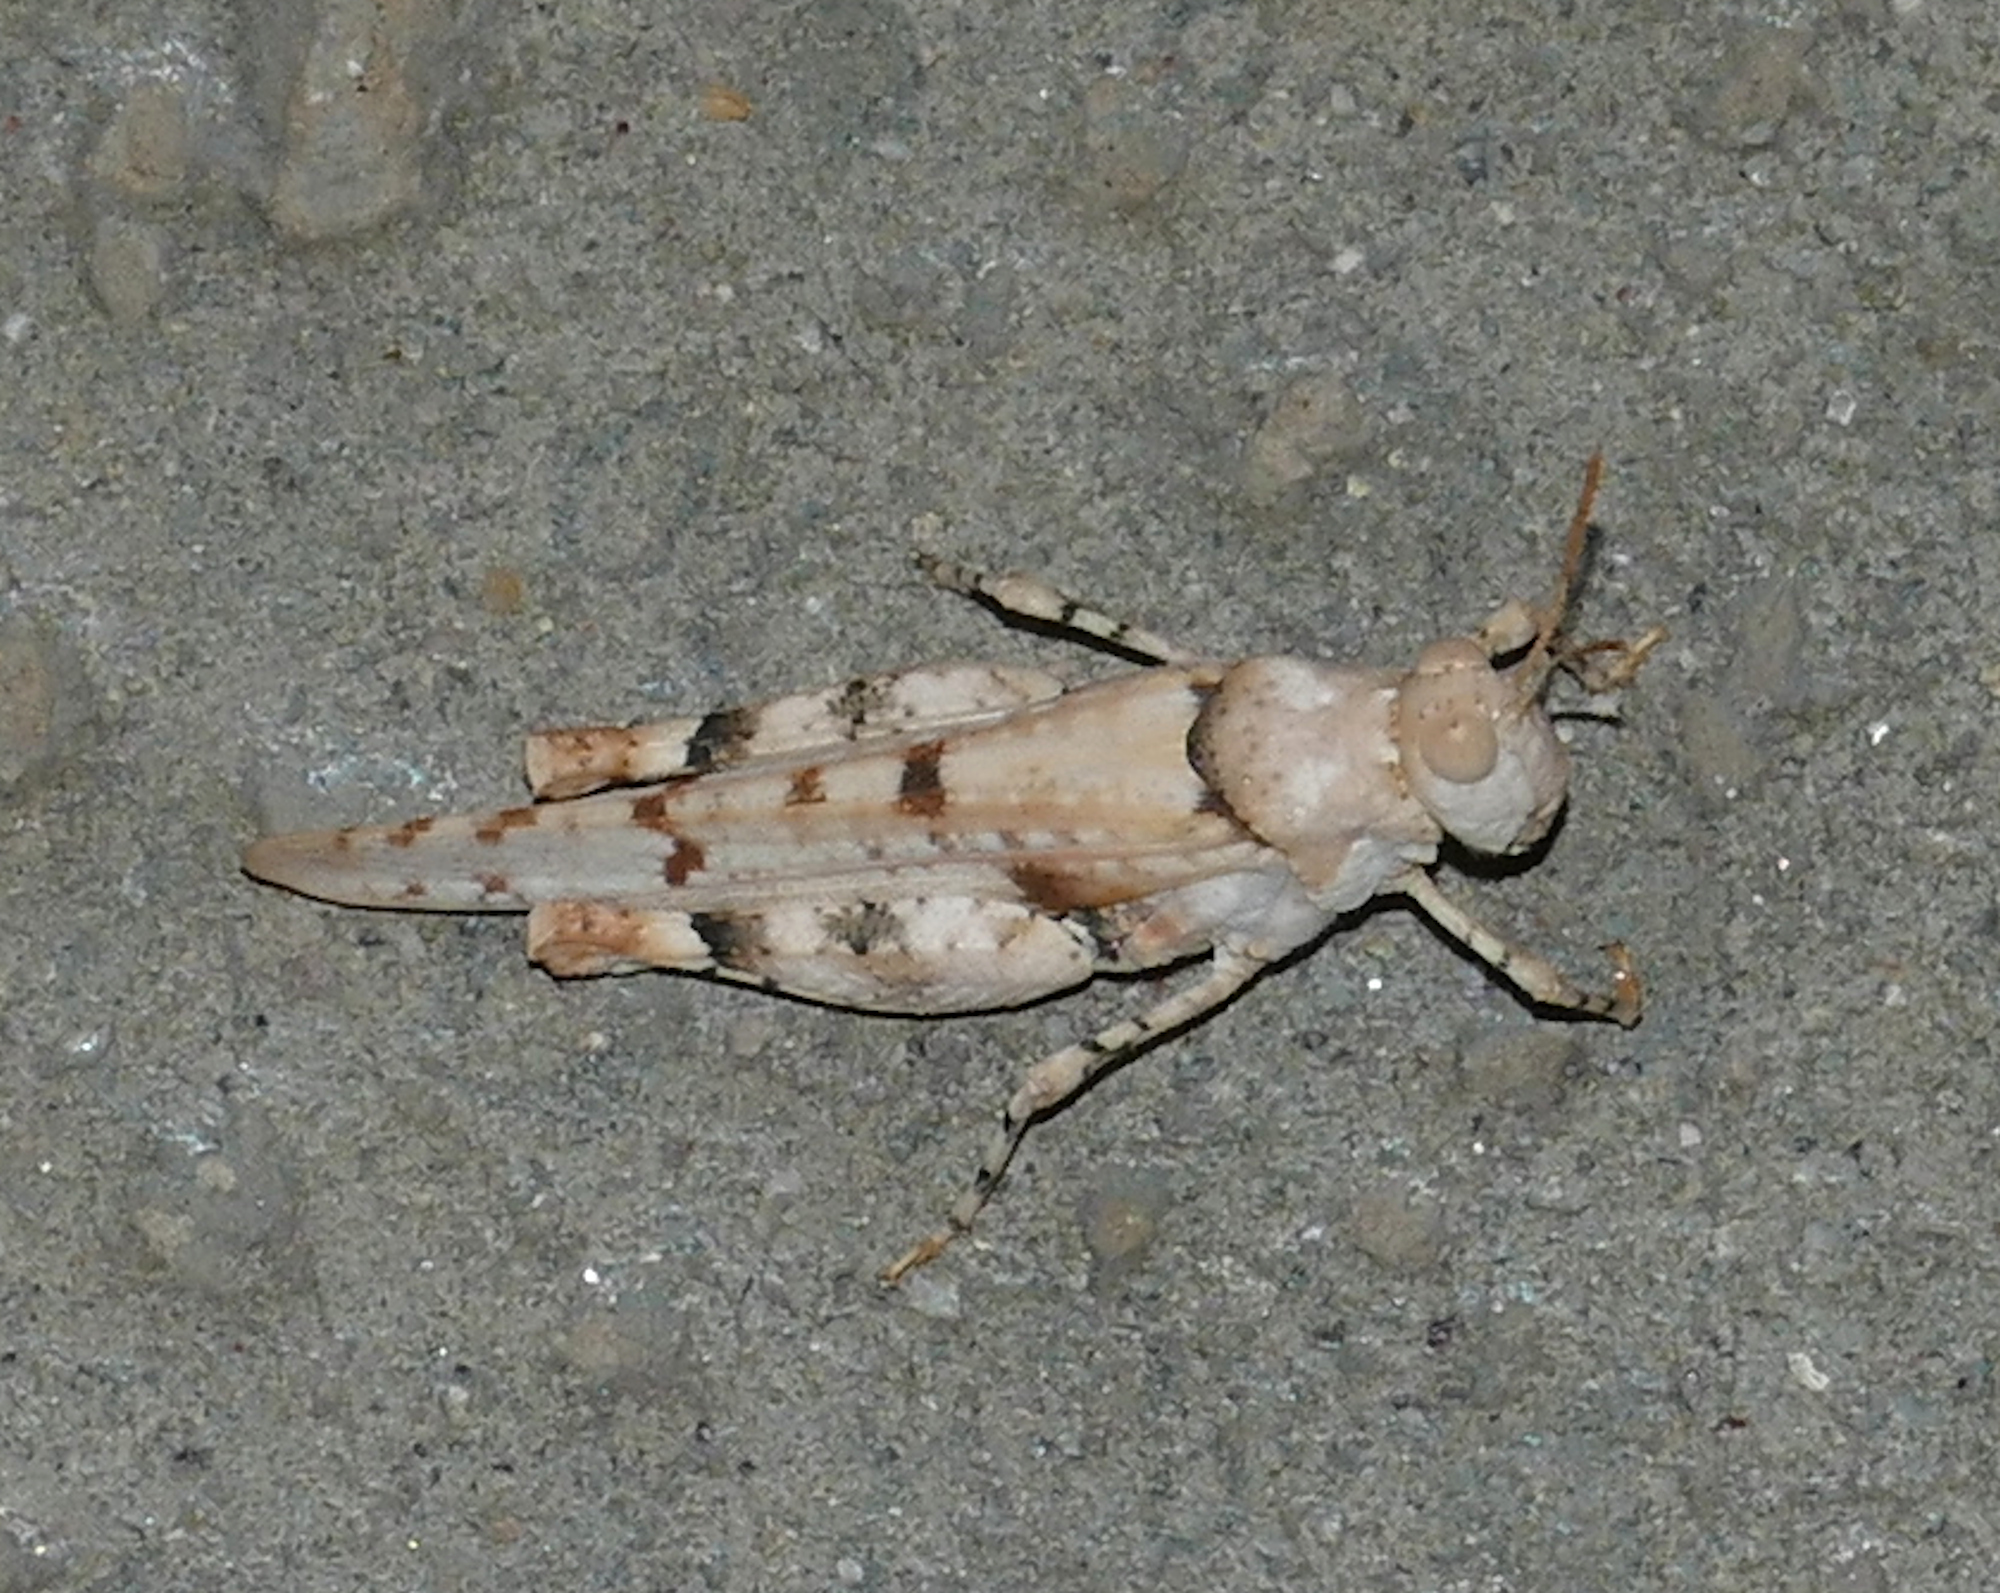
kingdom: Animalia
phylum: Arthropoda
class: Insecta
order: Orthoptera
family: Acrididae
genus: Cibolacris
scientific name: Cibolacris parviceps
